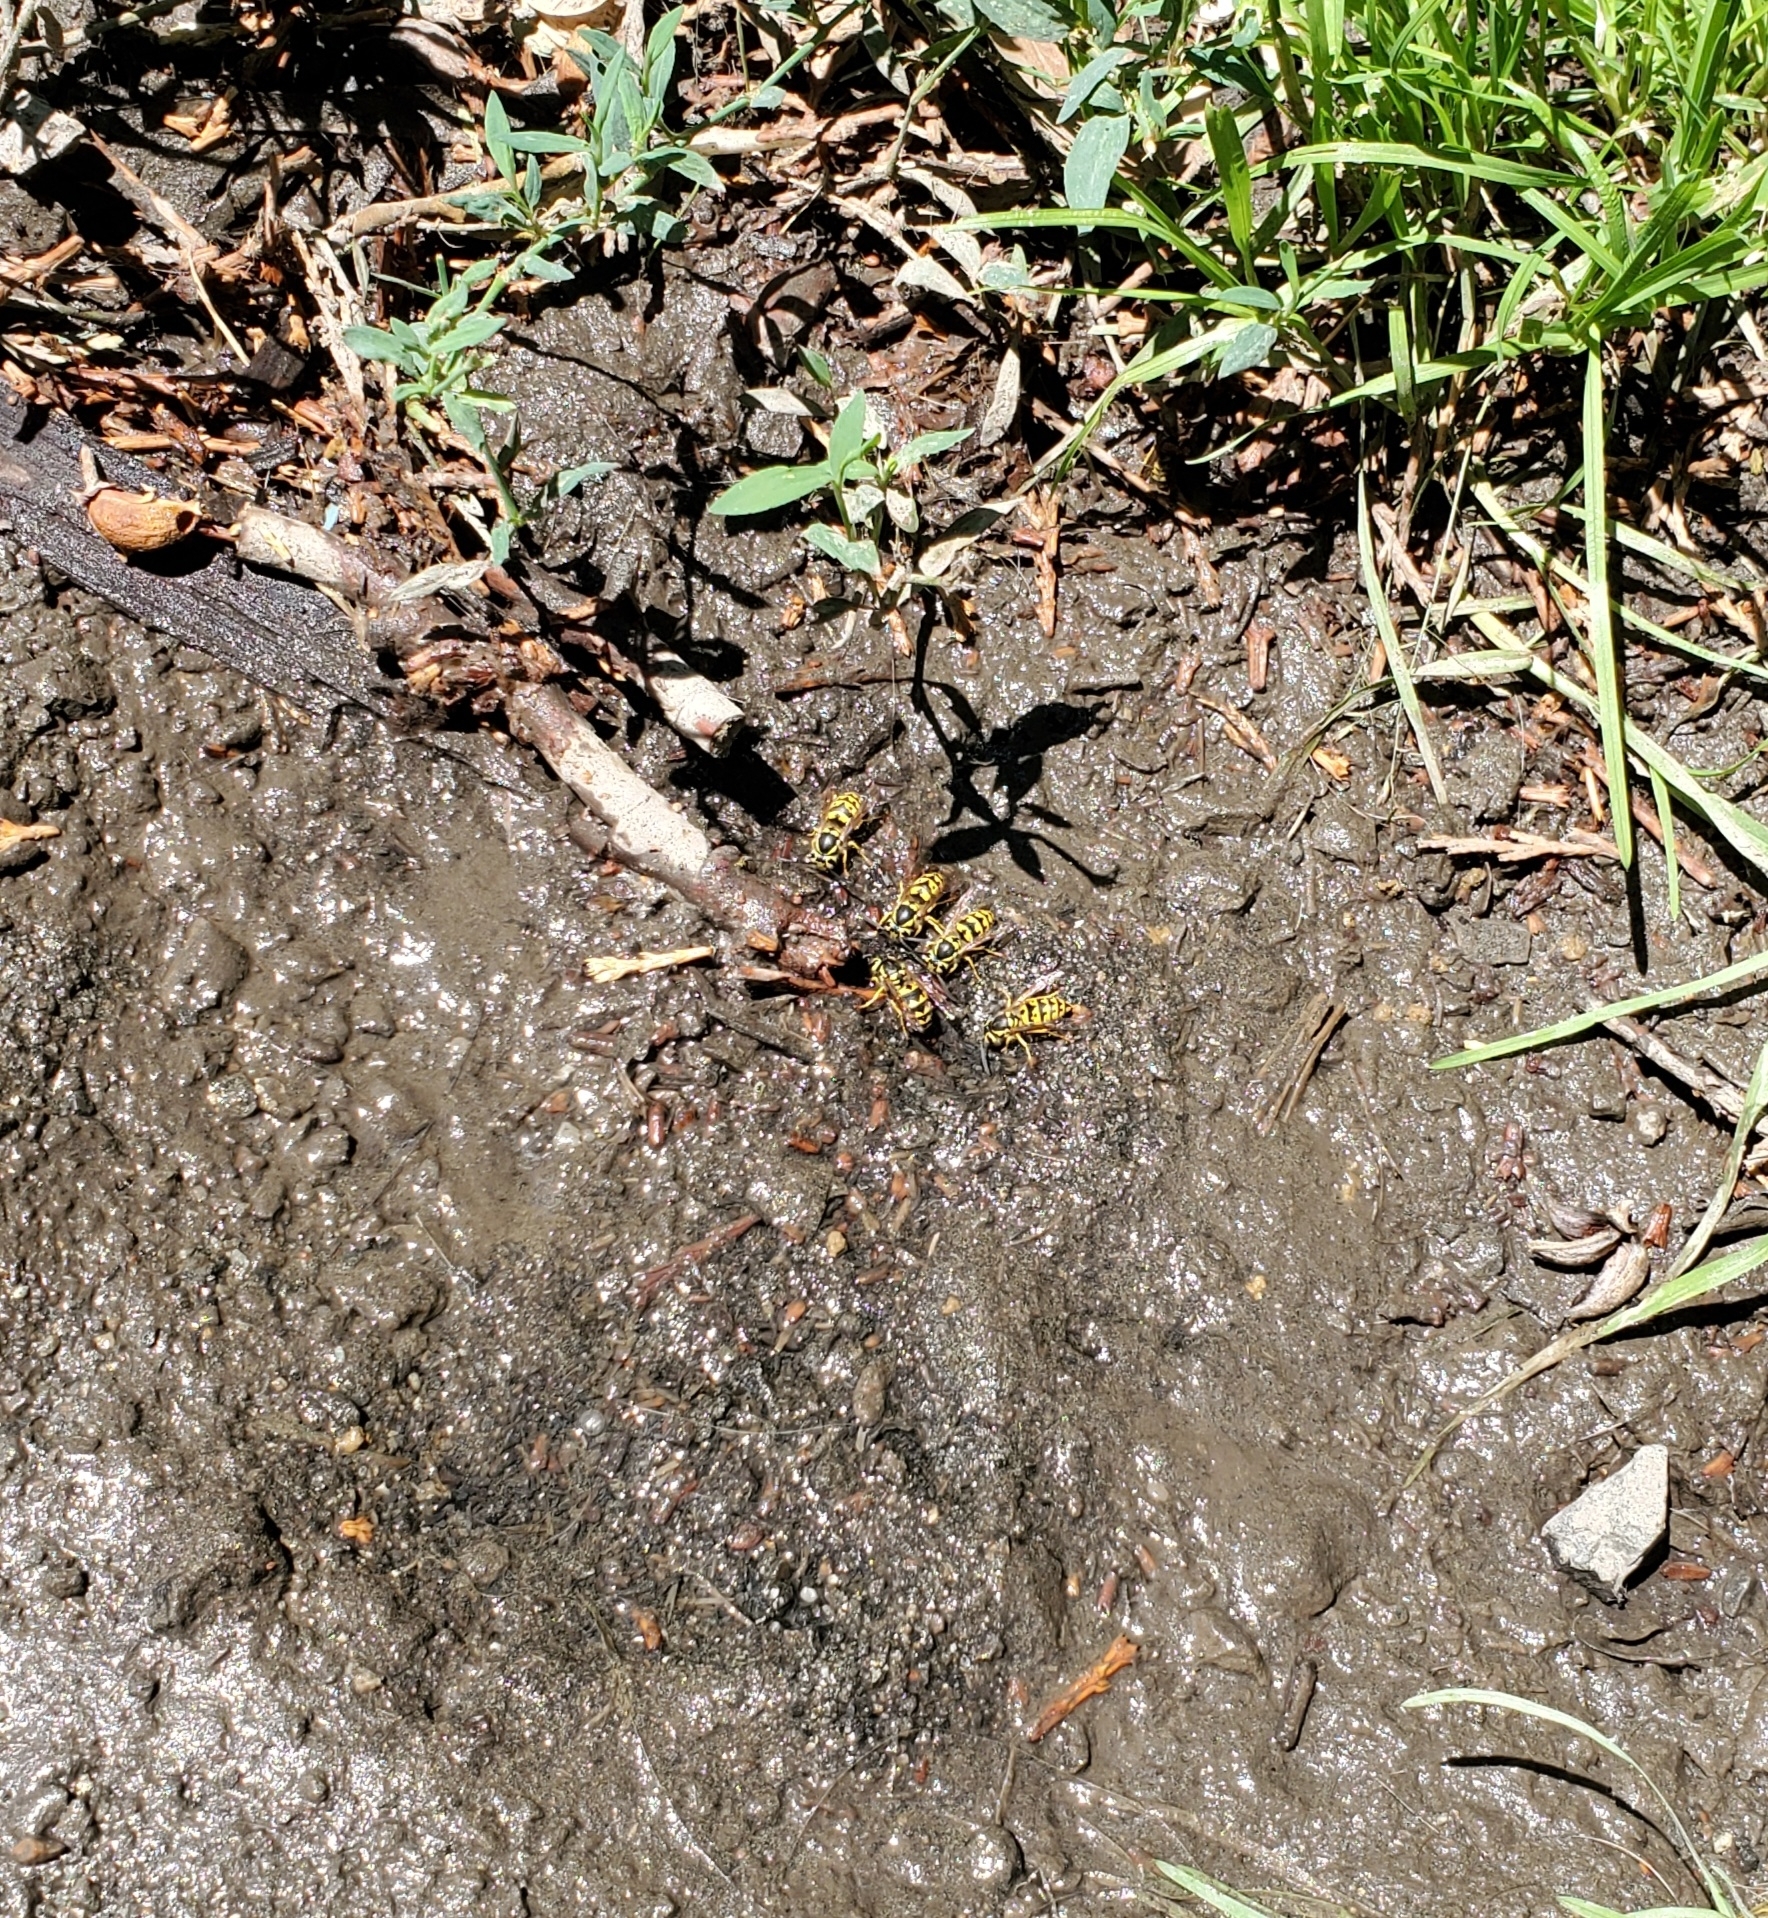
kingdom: Animalia
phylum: Arthropoda
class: Insecta
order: Hymenoptera
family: Vespidae
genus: Vespula
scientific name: Vespula pensylvanica
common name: Western yellowjacket
